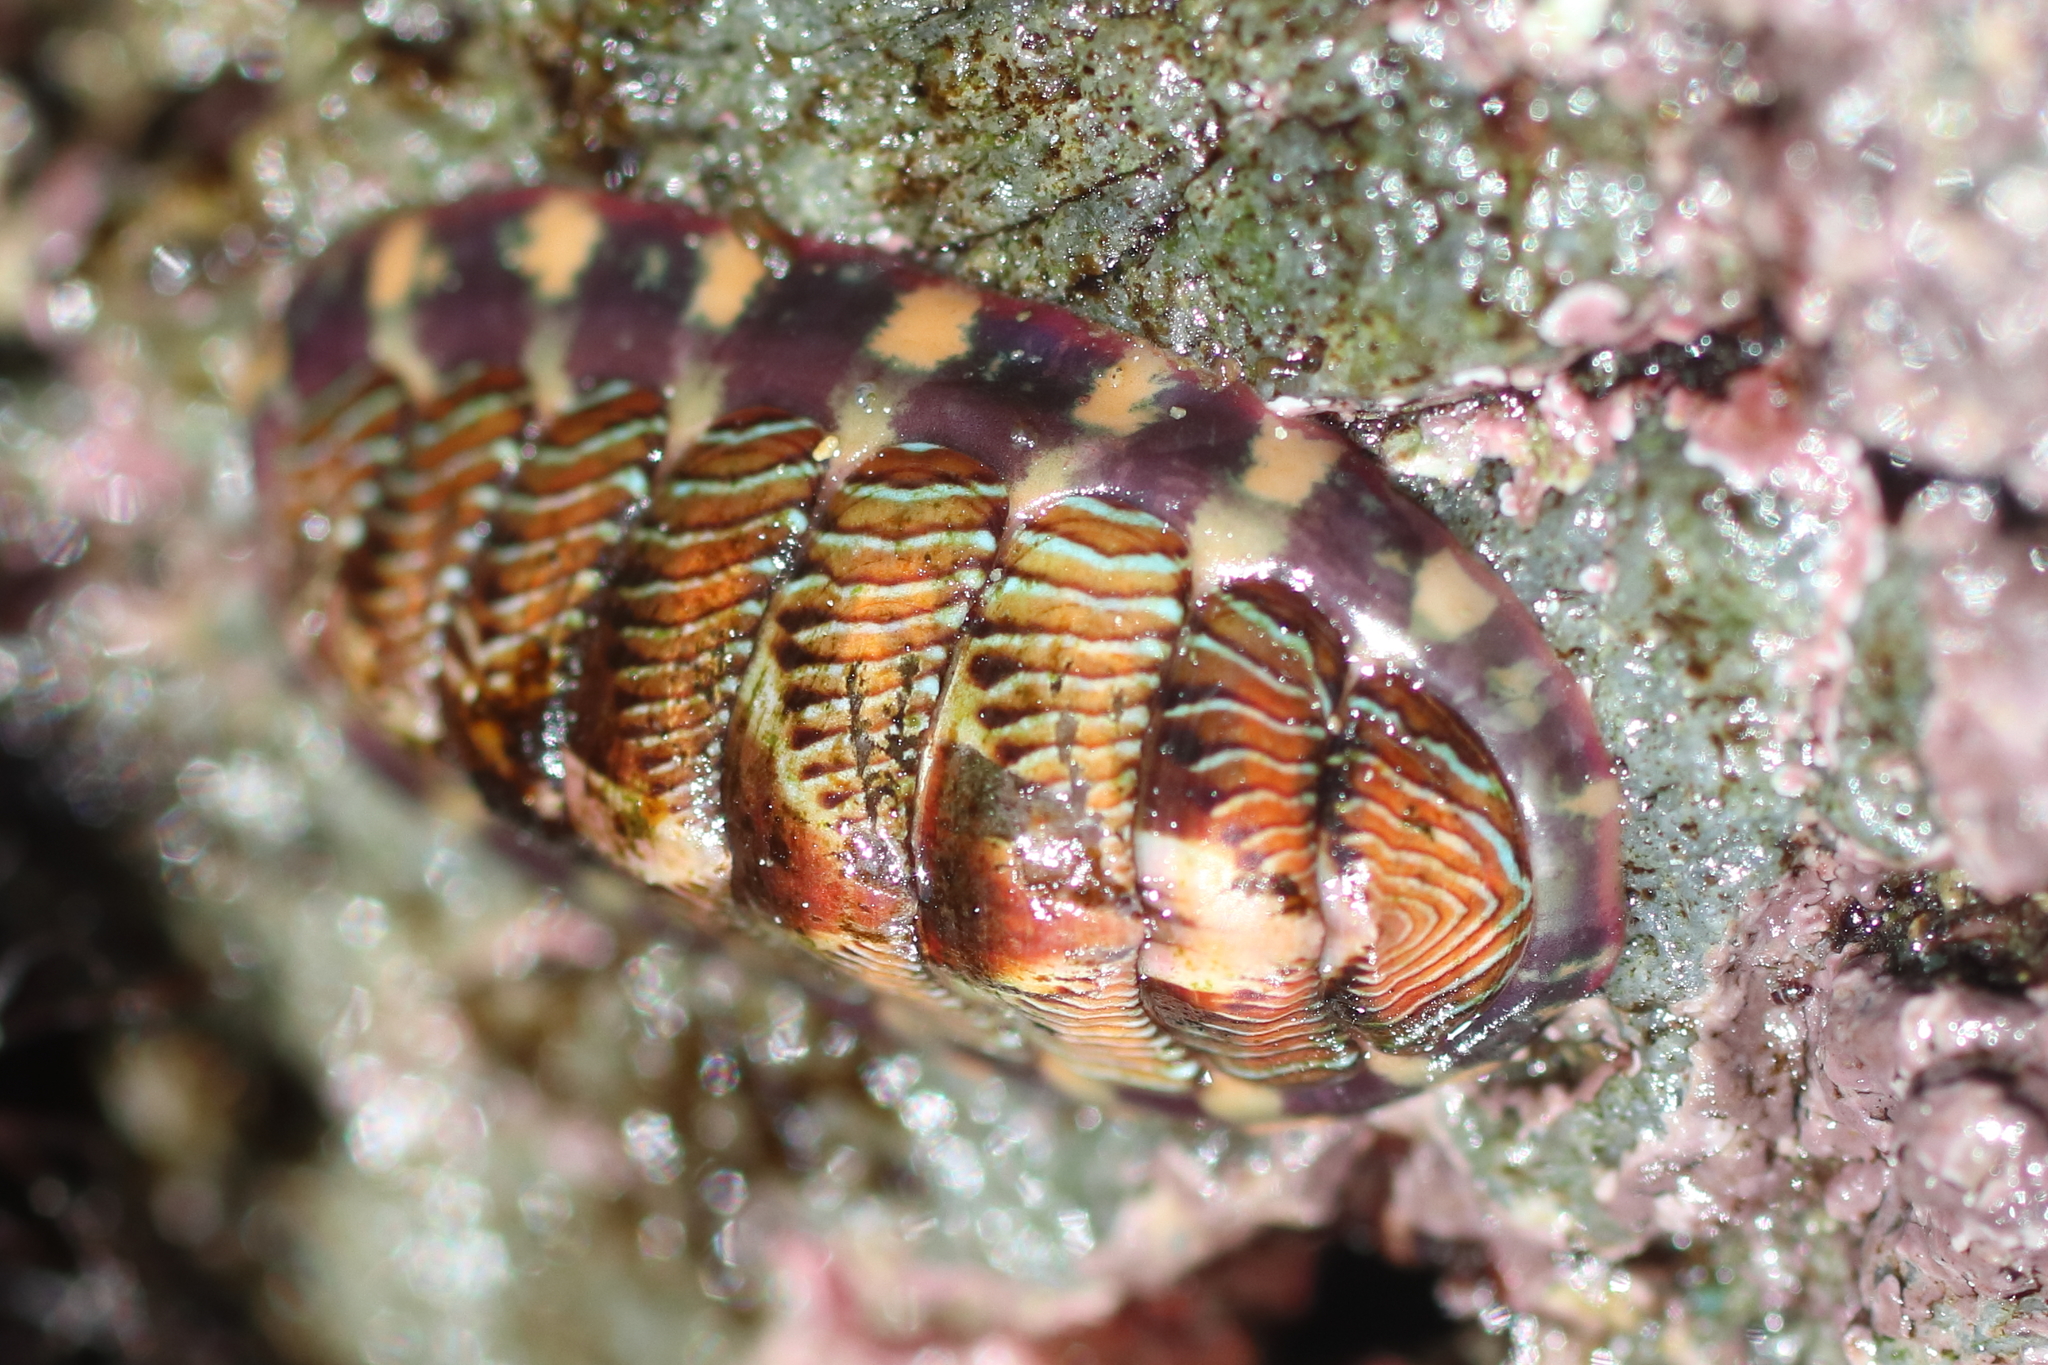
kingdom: Animalia
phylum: Mollusca
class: Polyplacophora
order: Chitonida
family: Tonicellidae
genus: Tonicella
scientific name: Tonicella lineata
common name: Lined chiton
